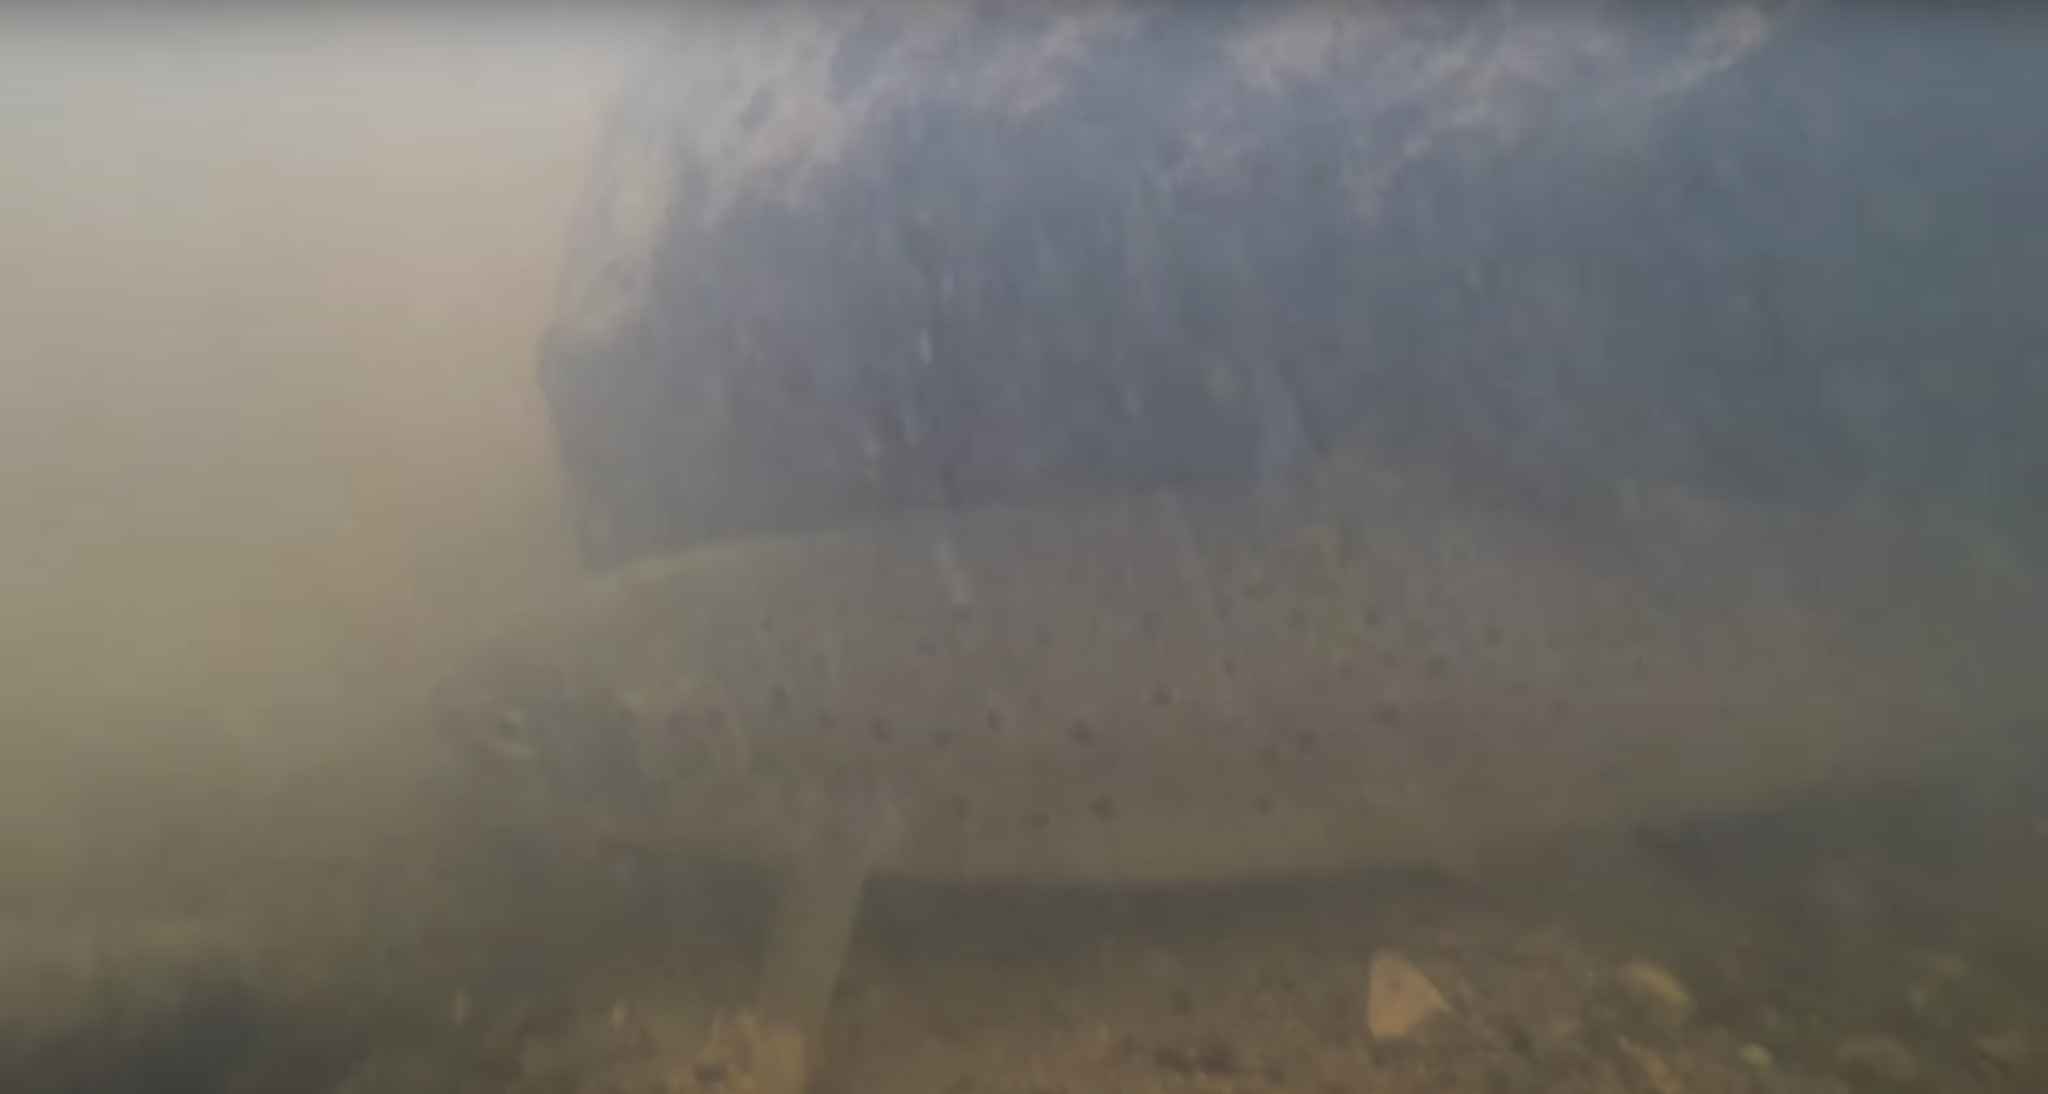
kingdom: Animalia
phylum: Chordata
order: Salmoniformes
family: Salmonidae
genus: Salmo
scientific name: Salmo trutta
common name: Brown trout
